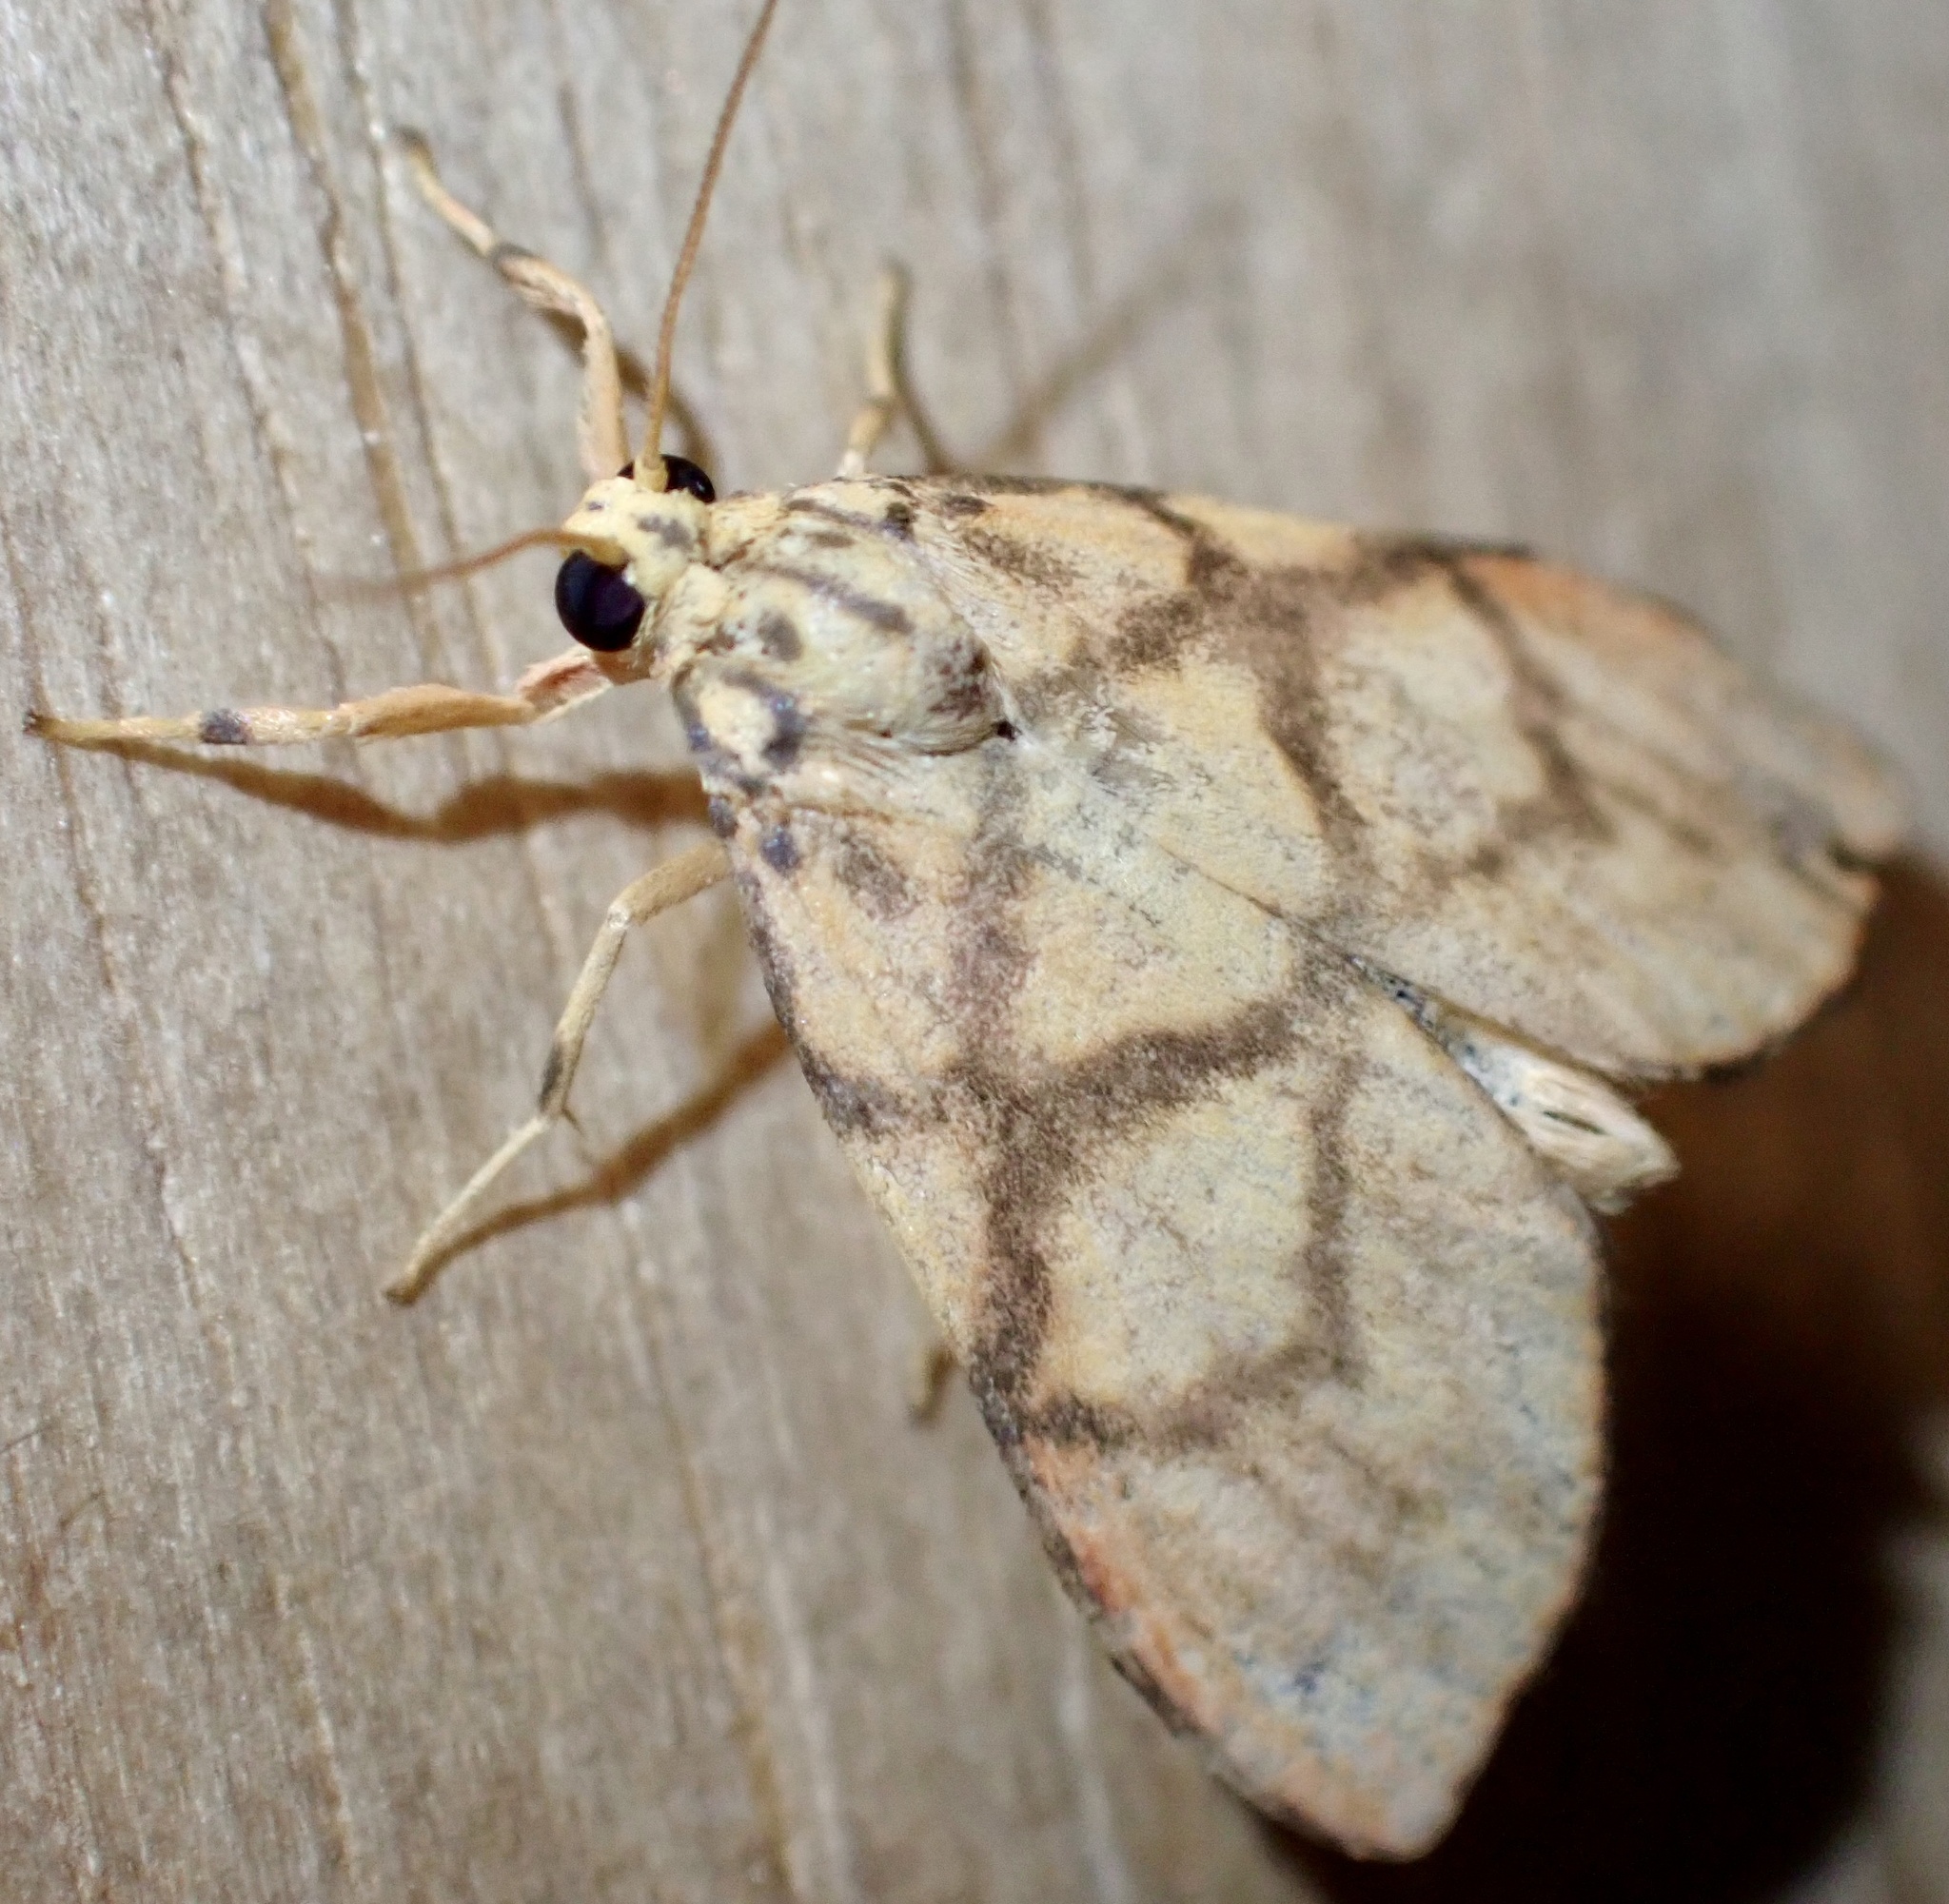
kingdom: Animalia
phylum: Arthropoda
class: Insecta
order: Lepidoptera
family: Erebidae
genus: Integrivalvia
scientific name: Integrivalvia decussa
